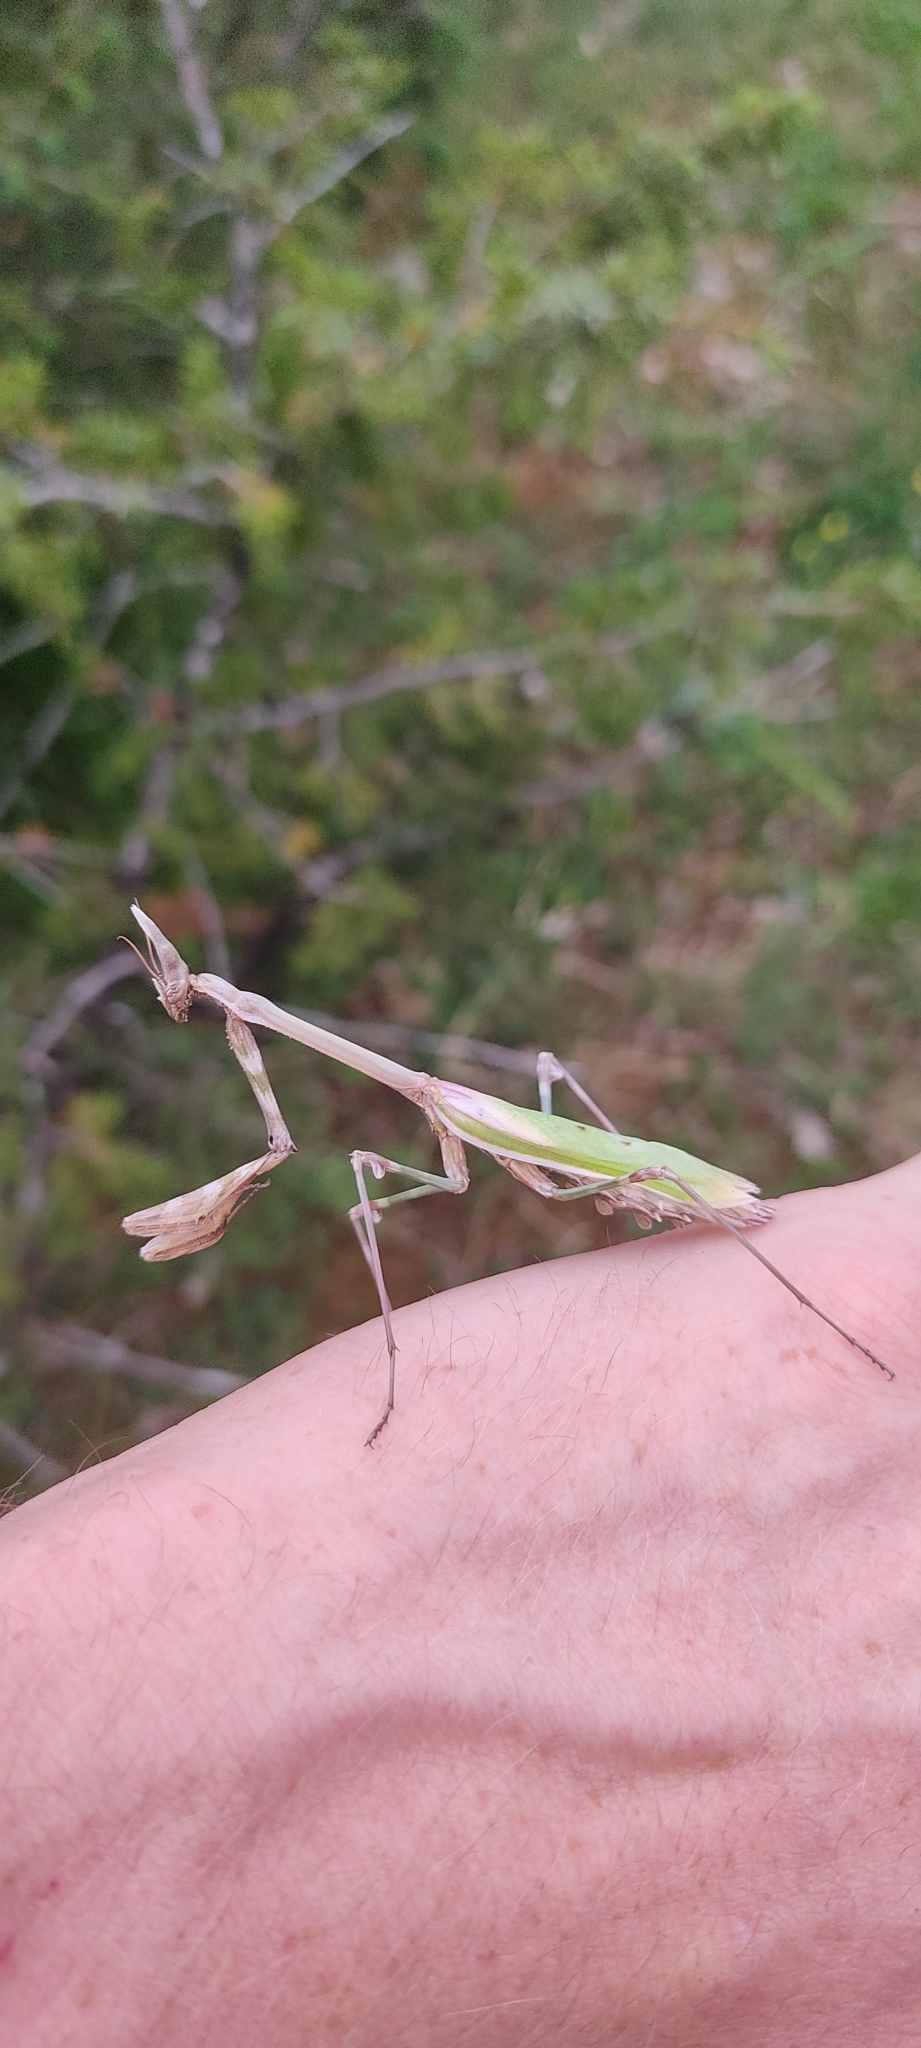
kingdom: Animalia
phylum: Arthropoda
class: Insecta
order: Mantodea
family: Empusidae
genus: Empusa
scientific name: Empusa pennata
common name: Conehead mantis
